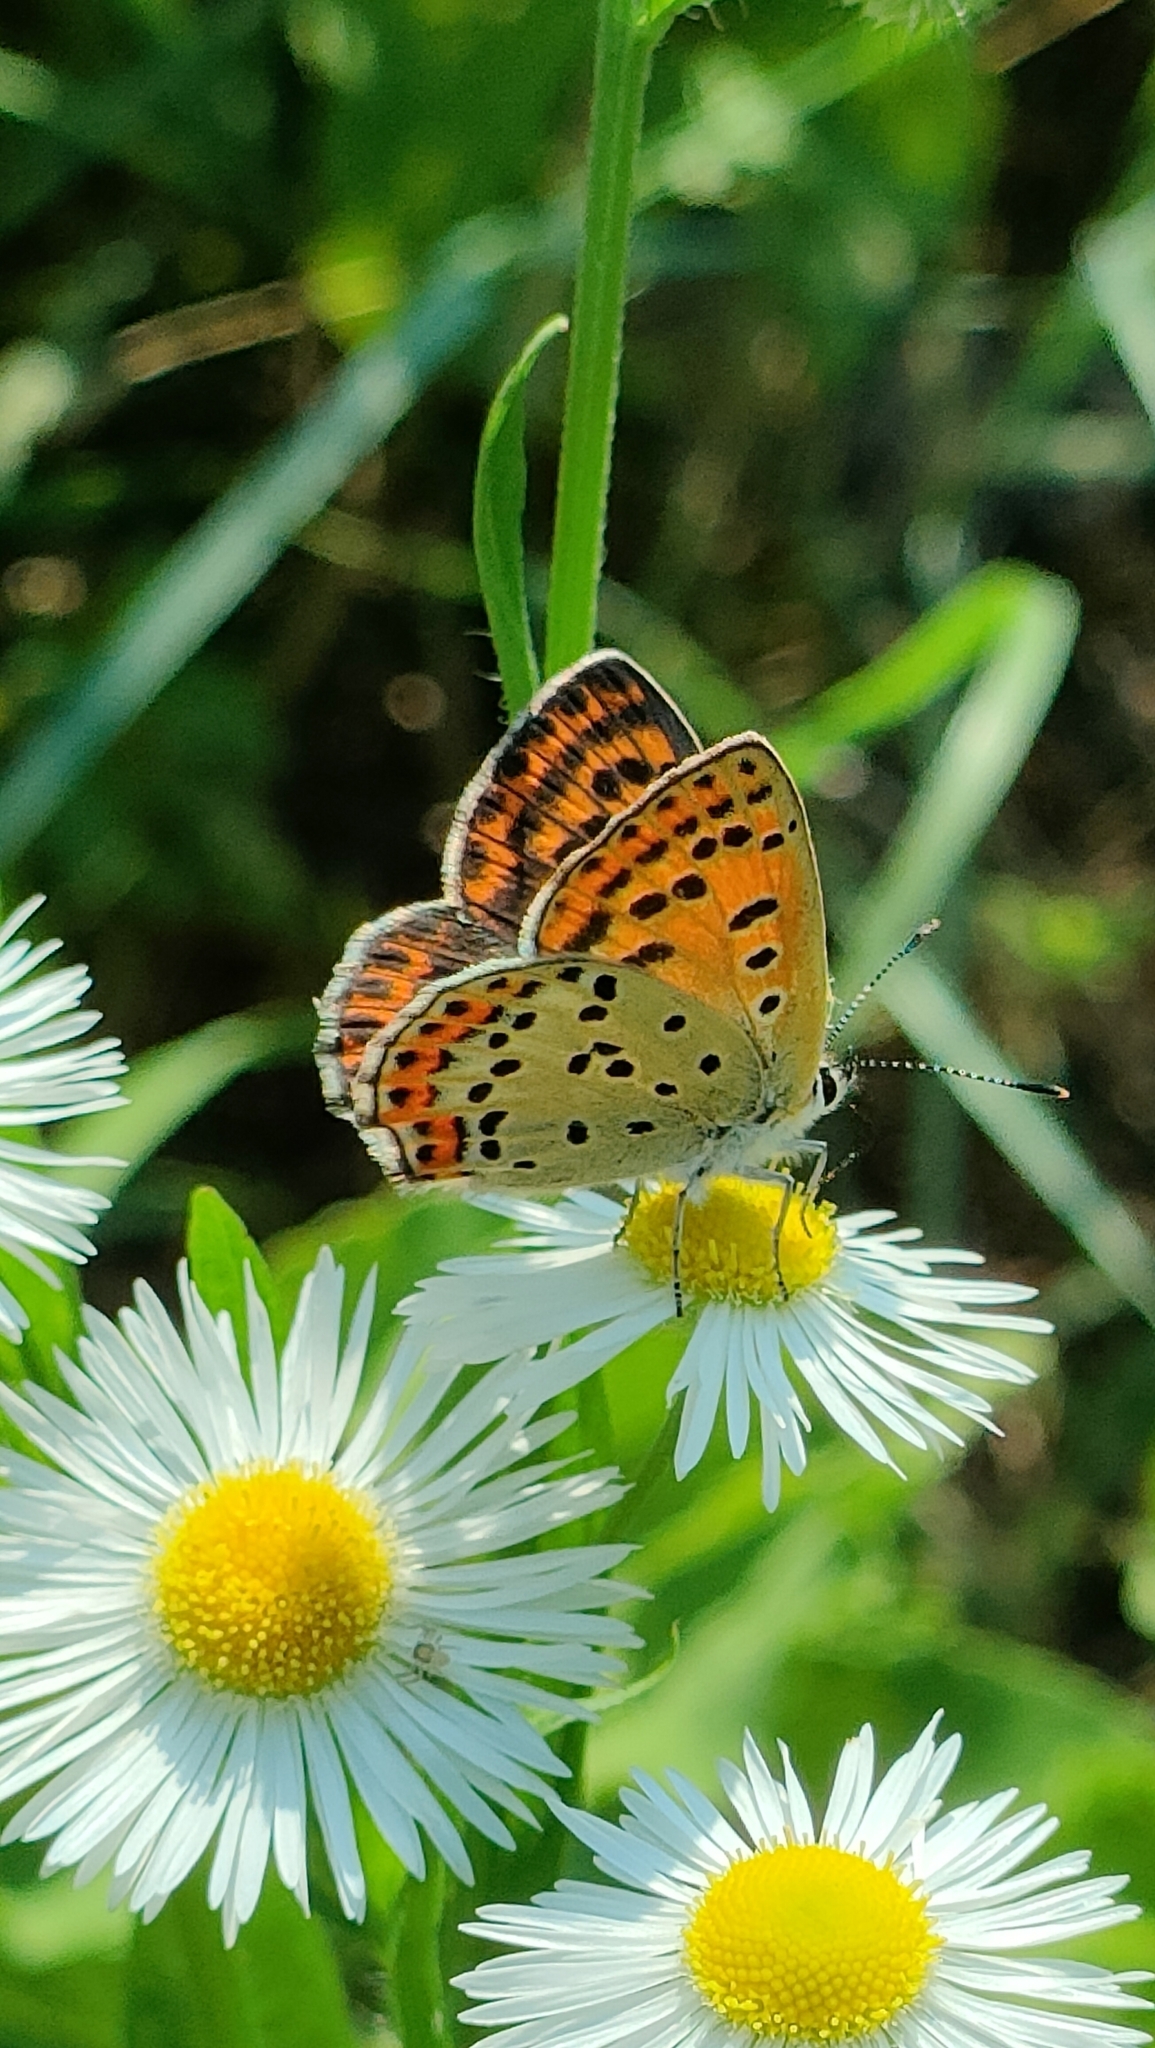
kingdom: Animalia
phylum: Arthropoda
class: Insecta
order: Lepidoptera
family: Lycaenidae
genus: Loweia
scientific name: Loweia tityrus
